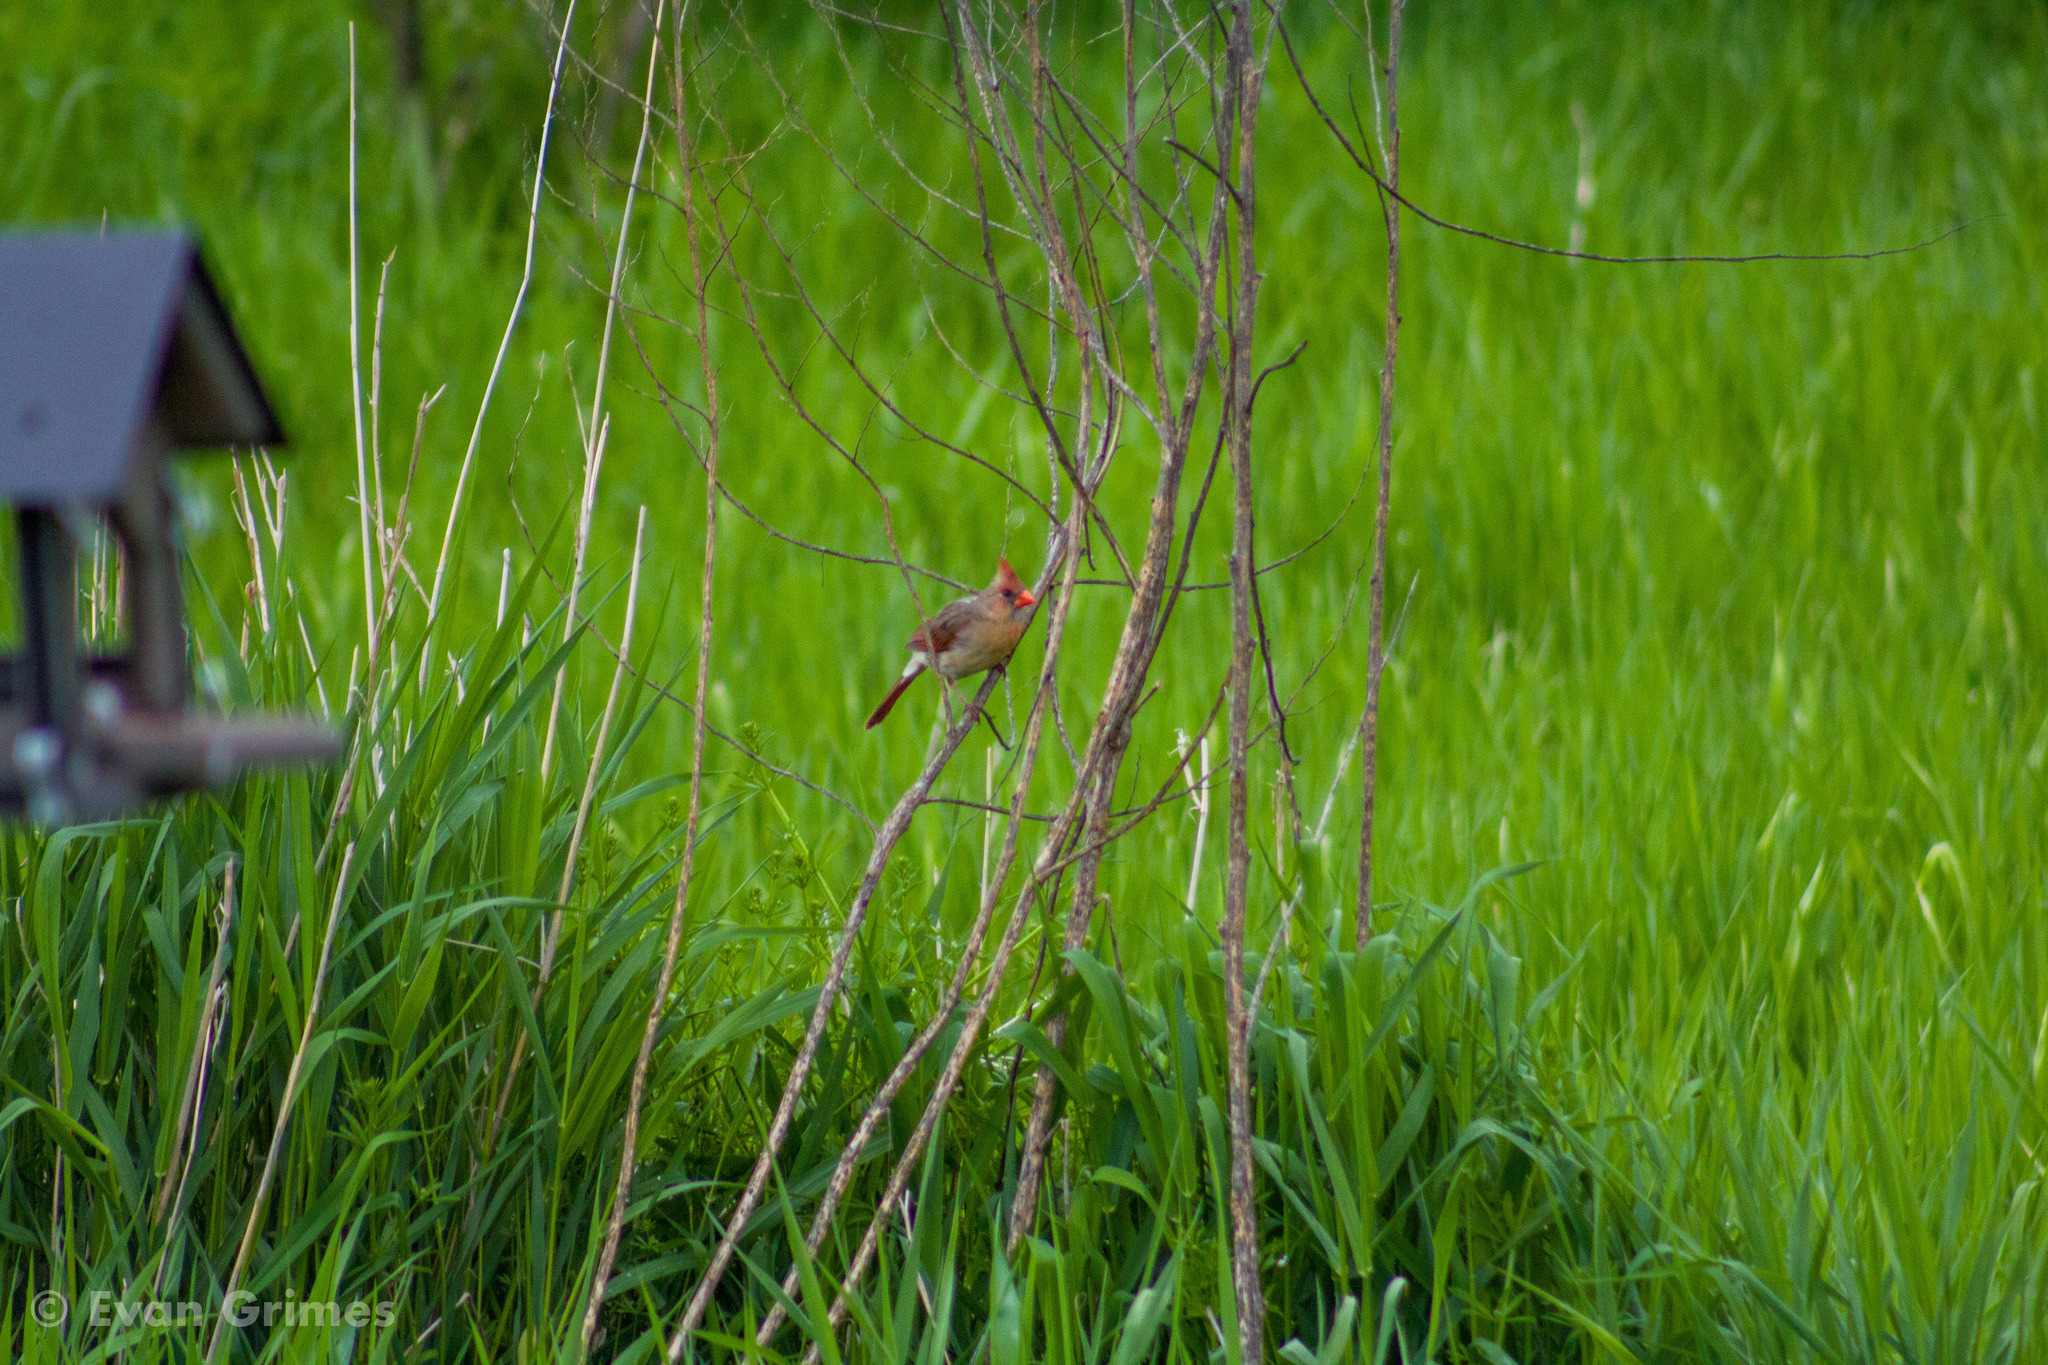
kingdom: Animalia
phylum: Chordata
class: Aves
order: Passeriformes
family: Cardinalidae
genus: Cardinalis
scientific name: Cardinalis cardinalis
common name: Northern cardinal
